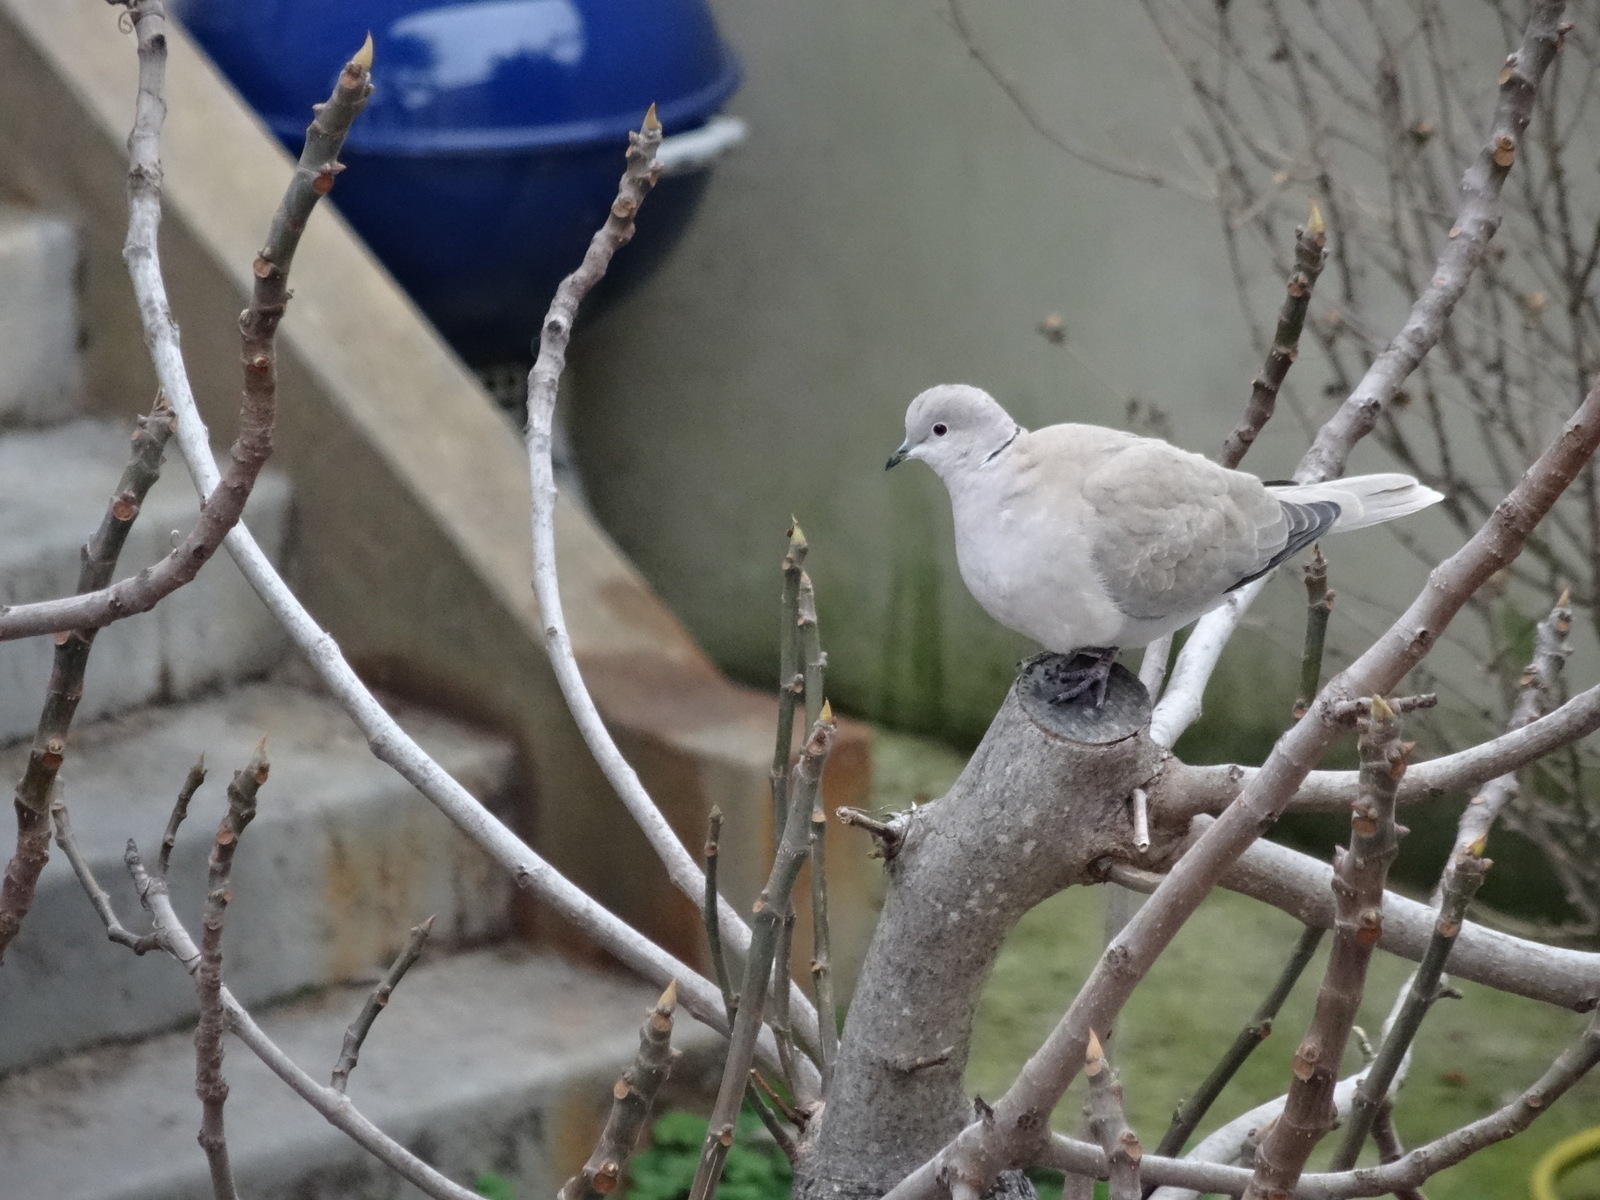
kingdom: Animalia
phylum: Chordata
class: Aves
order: Columbiformes
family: Columbidae
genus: Streptopelia
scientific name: Streptopelia decaocto
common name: Eurasian collared dove
